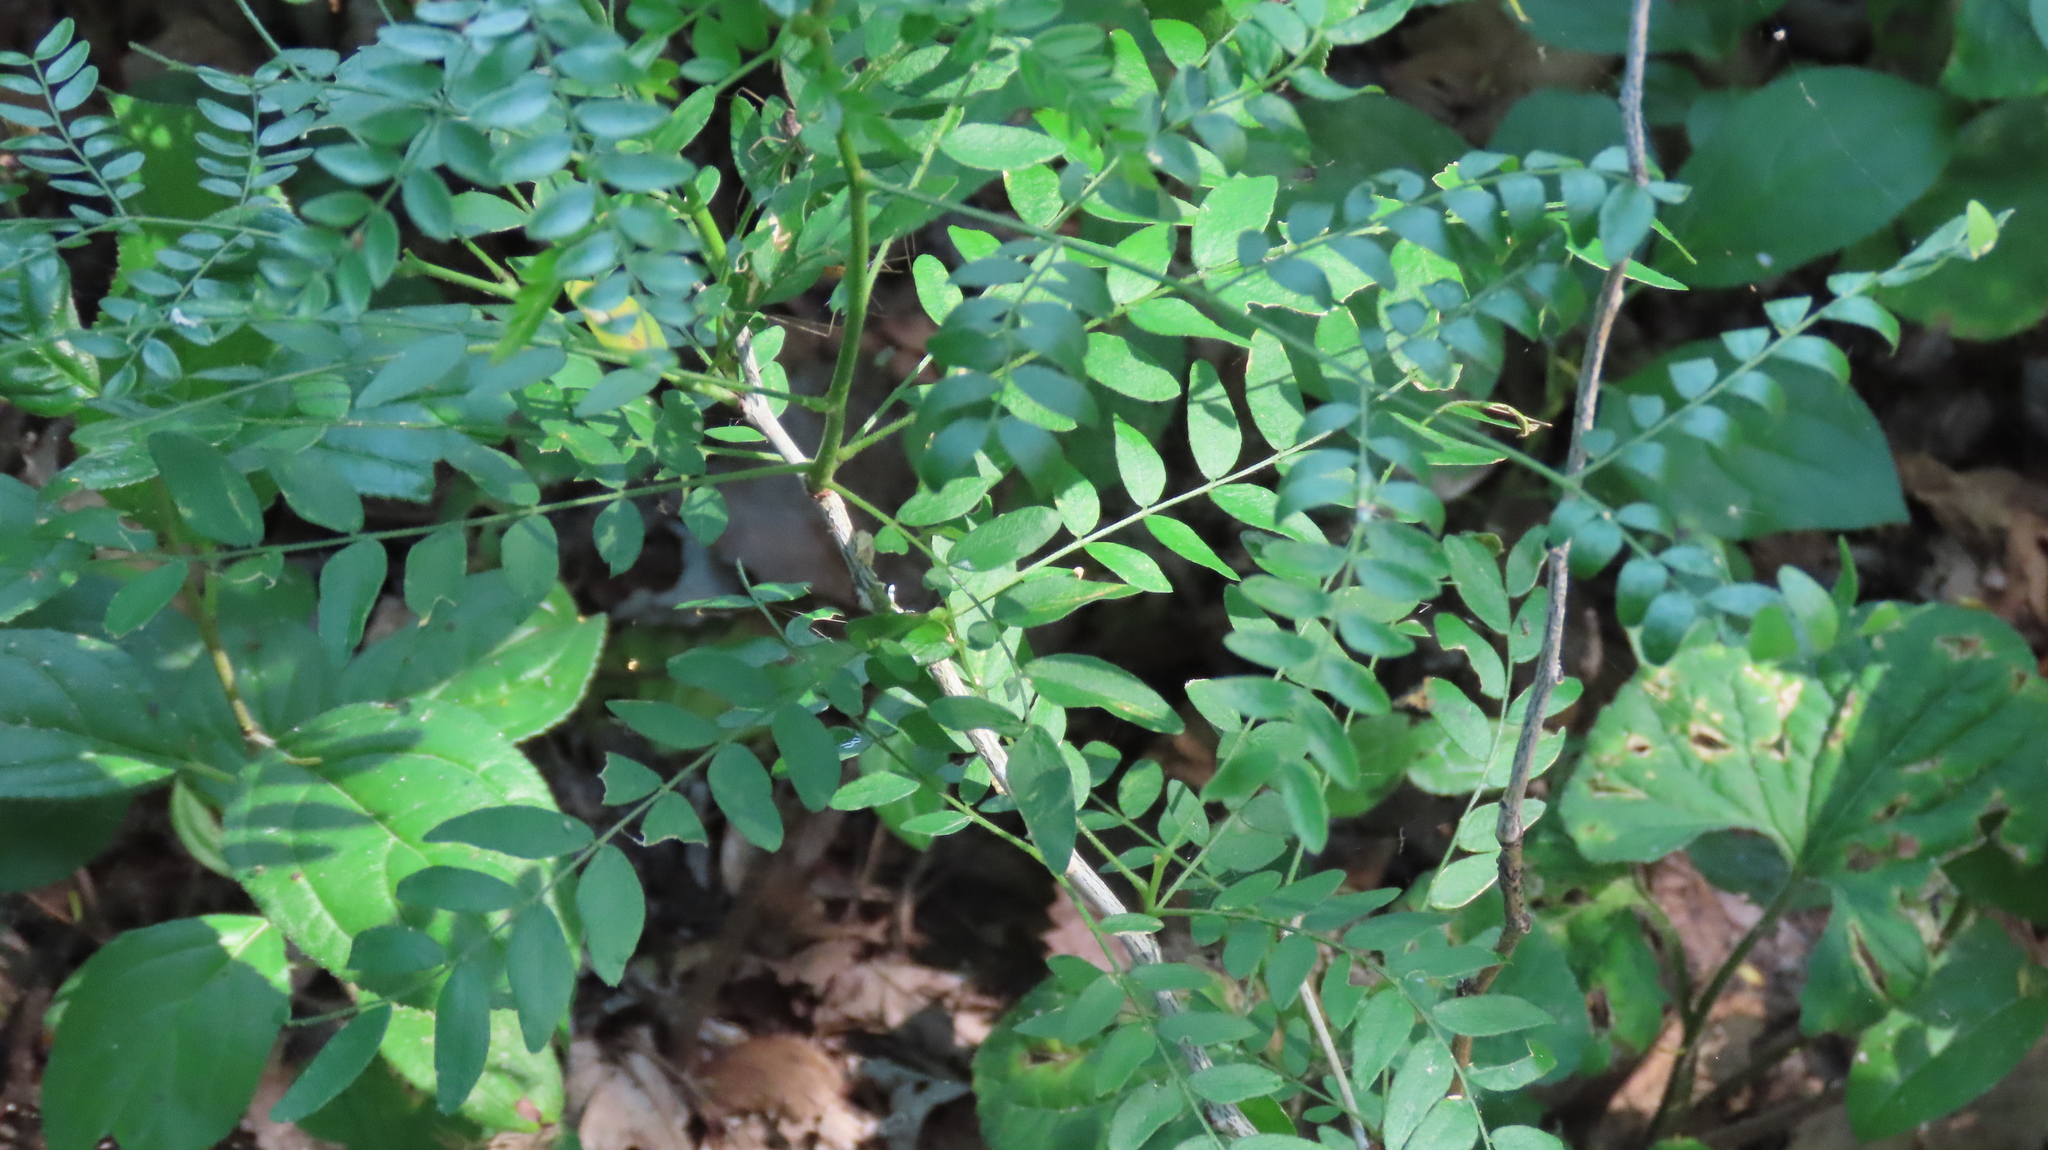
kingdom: Plantae
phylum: Tracheophyta
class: Magnoliopsida
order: Fabales
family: Fabaceae
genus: Gleditsia
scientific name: Gleditsia triacanthos
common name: Common honeylocust
